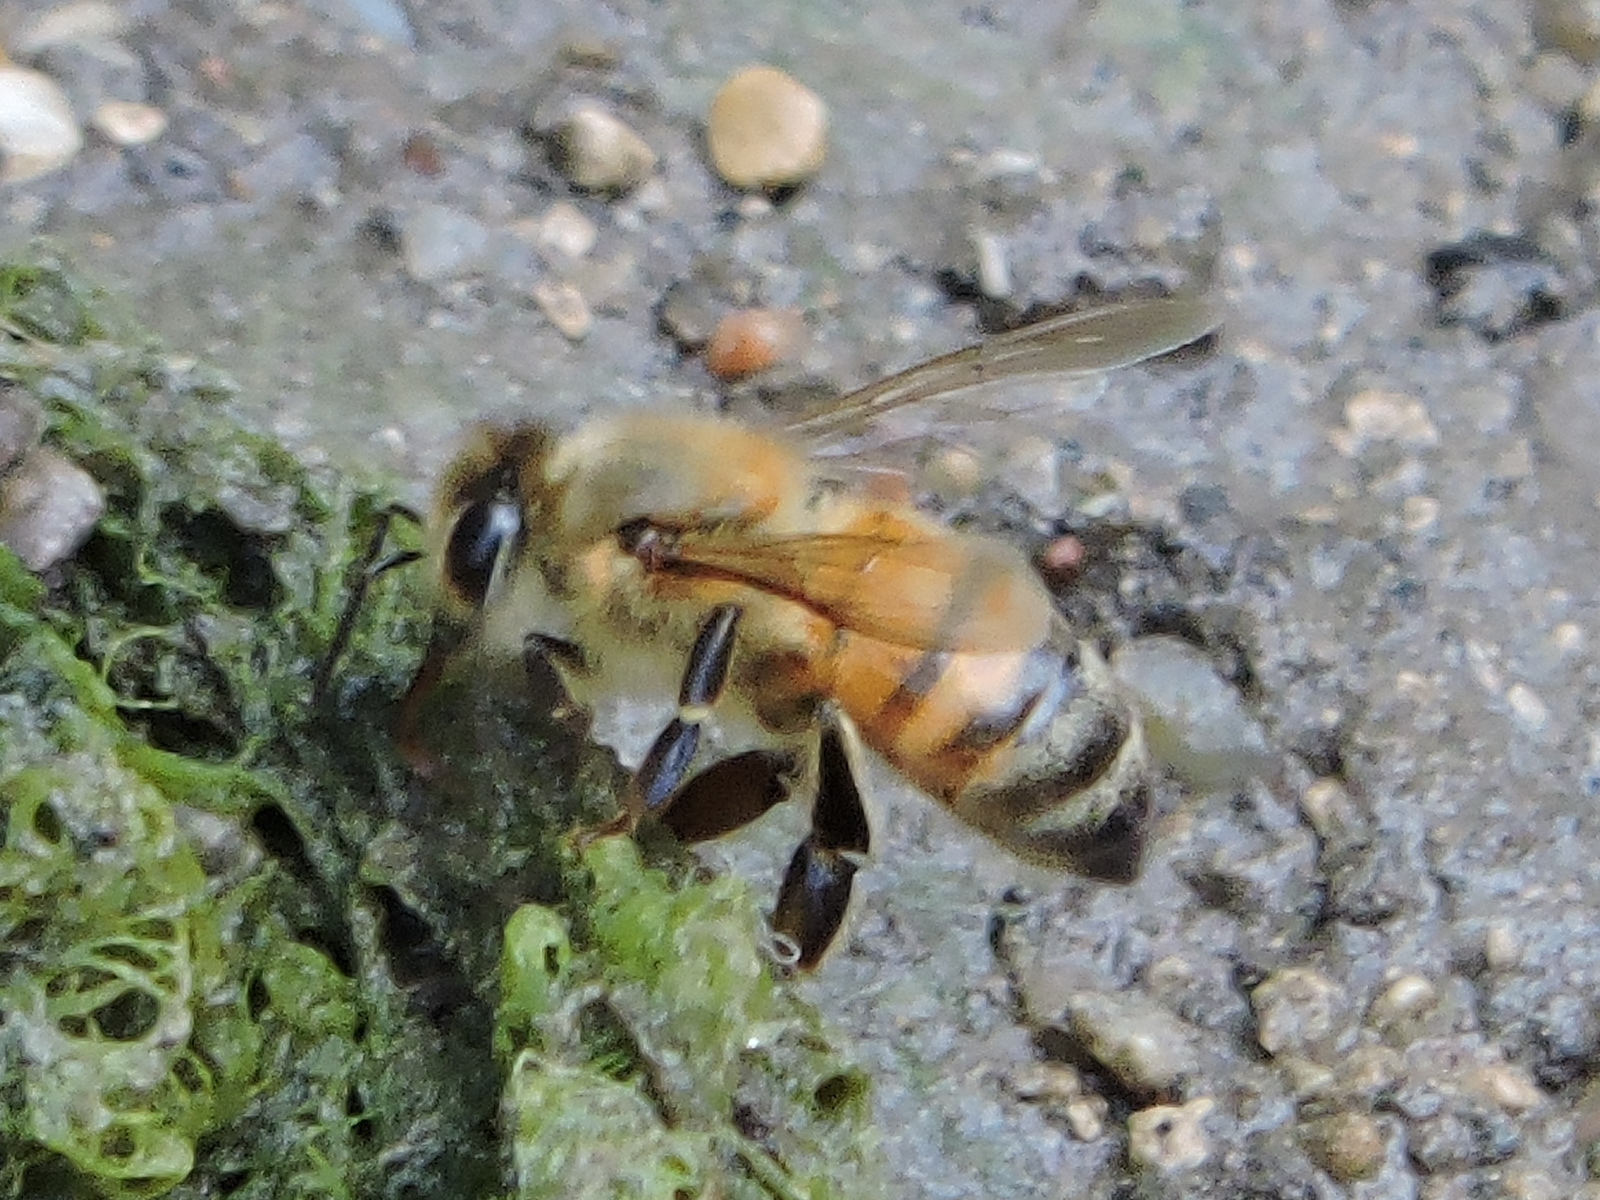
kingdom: Animalia
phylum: Arthropoda
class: Insecta
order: Hymenoptera
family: Apidae
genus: Apis
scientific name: Apis mellifera
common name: Honey bee
